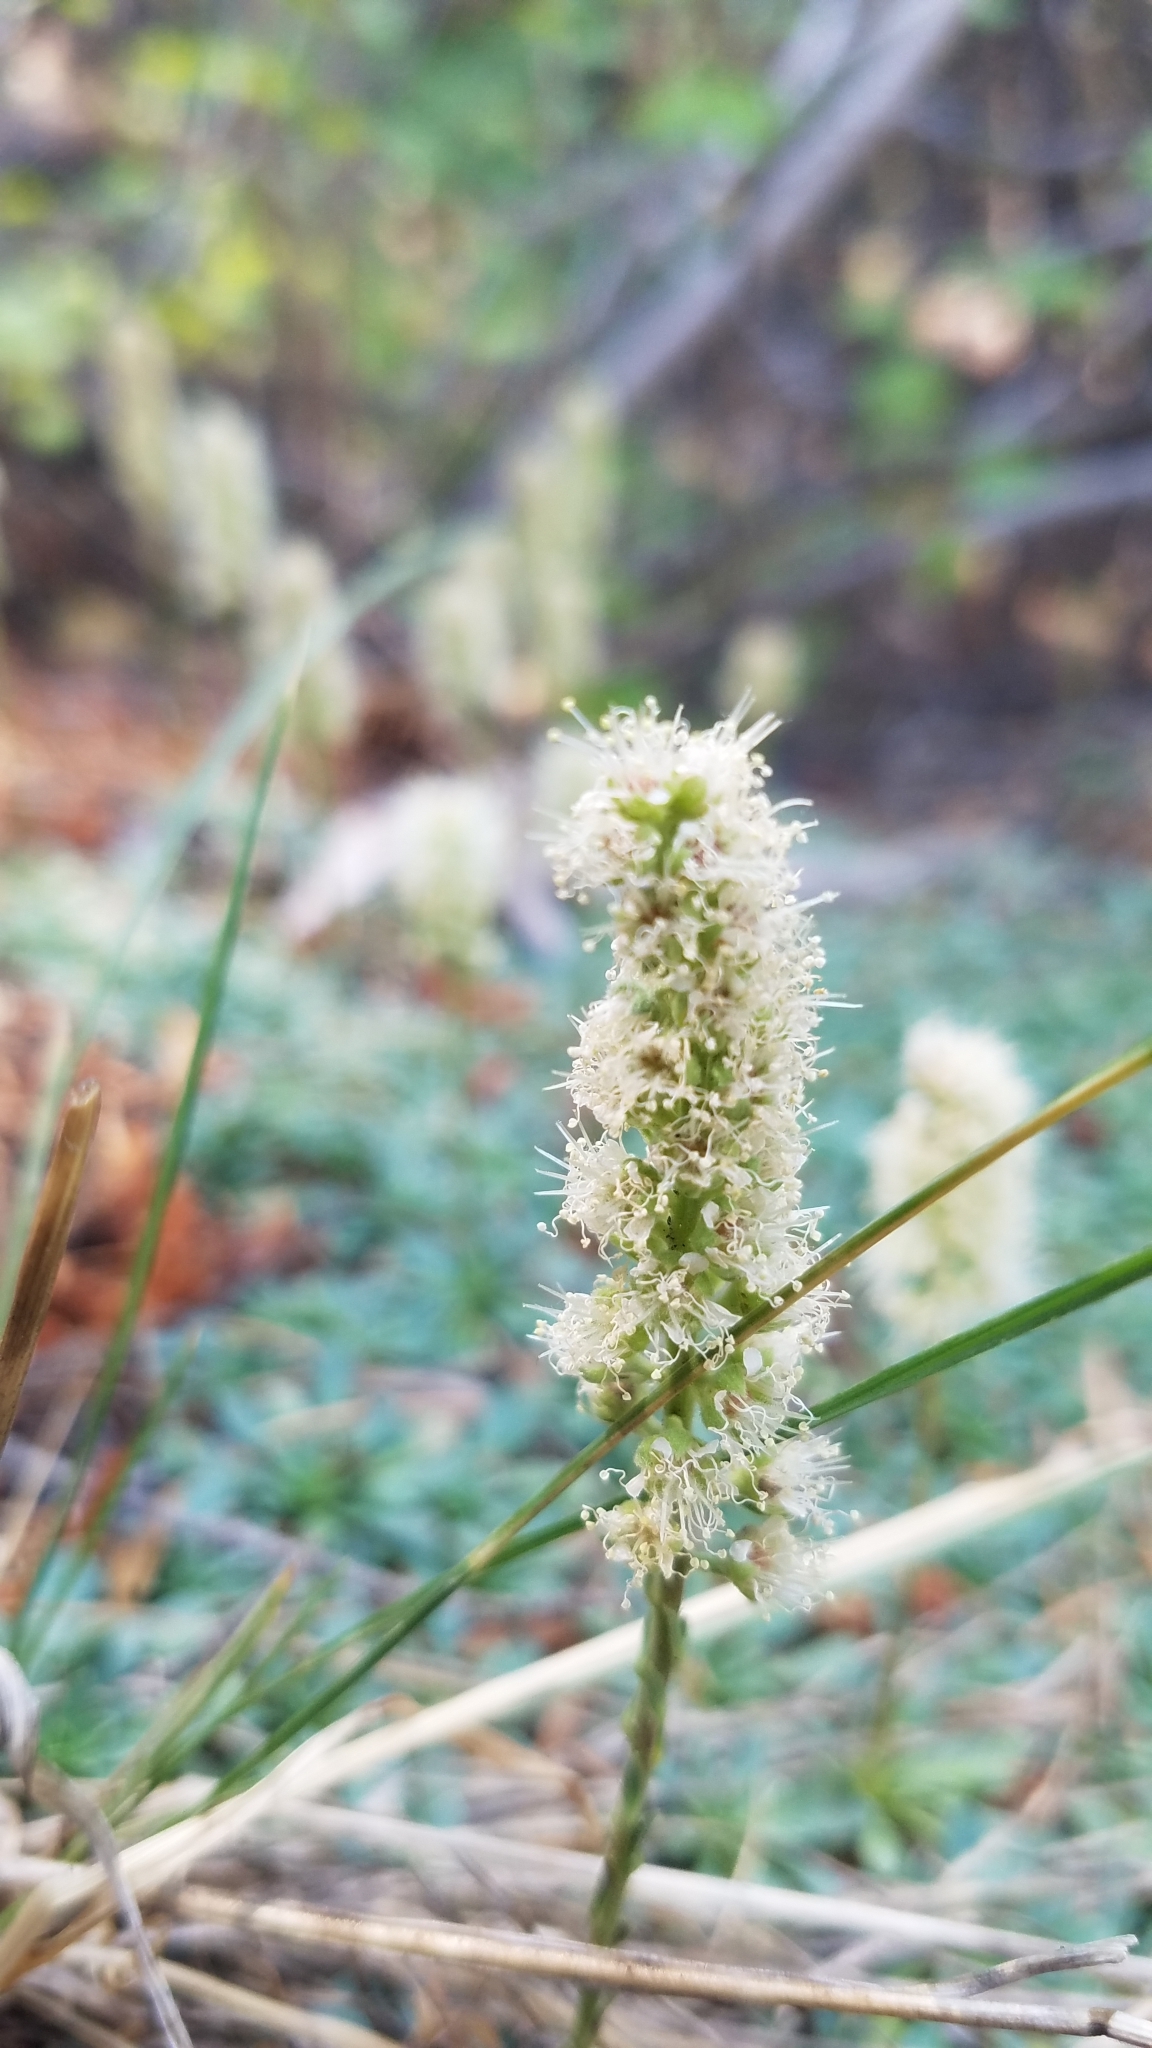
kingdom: Plantae
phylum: Tracheophyta
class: Magnoliopsida
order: Rosales
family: Rosaceae
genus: Petrophytum
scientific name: Petrophytum caespitosum
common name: Mat rockspirea
